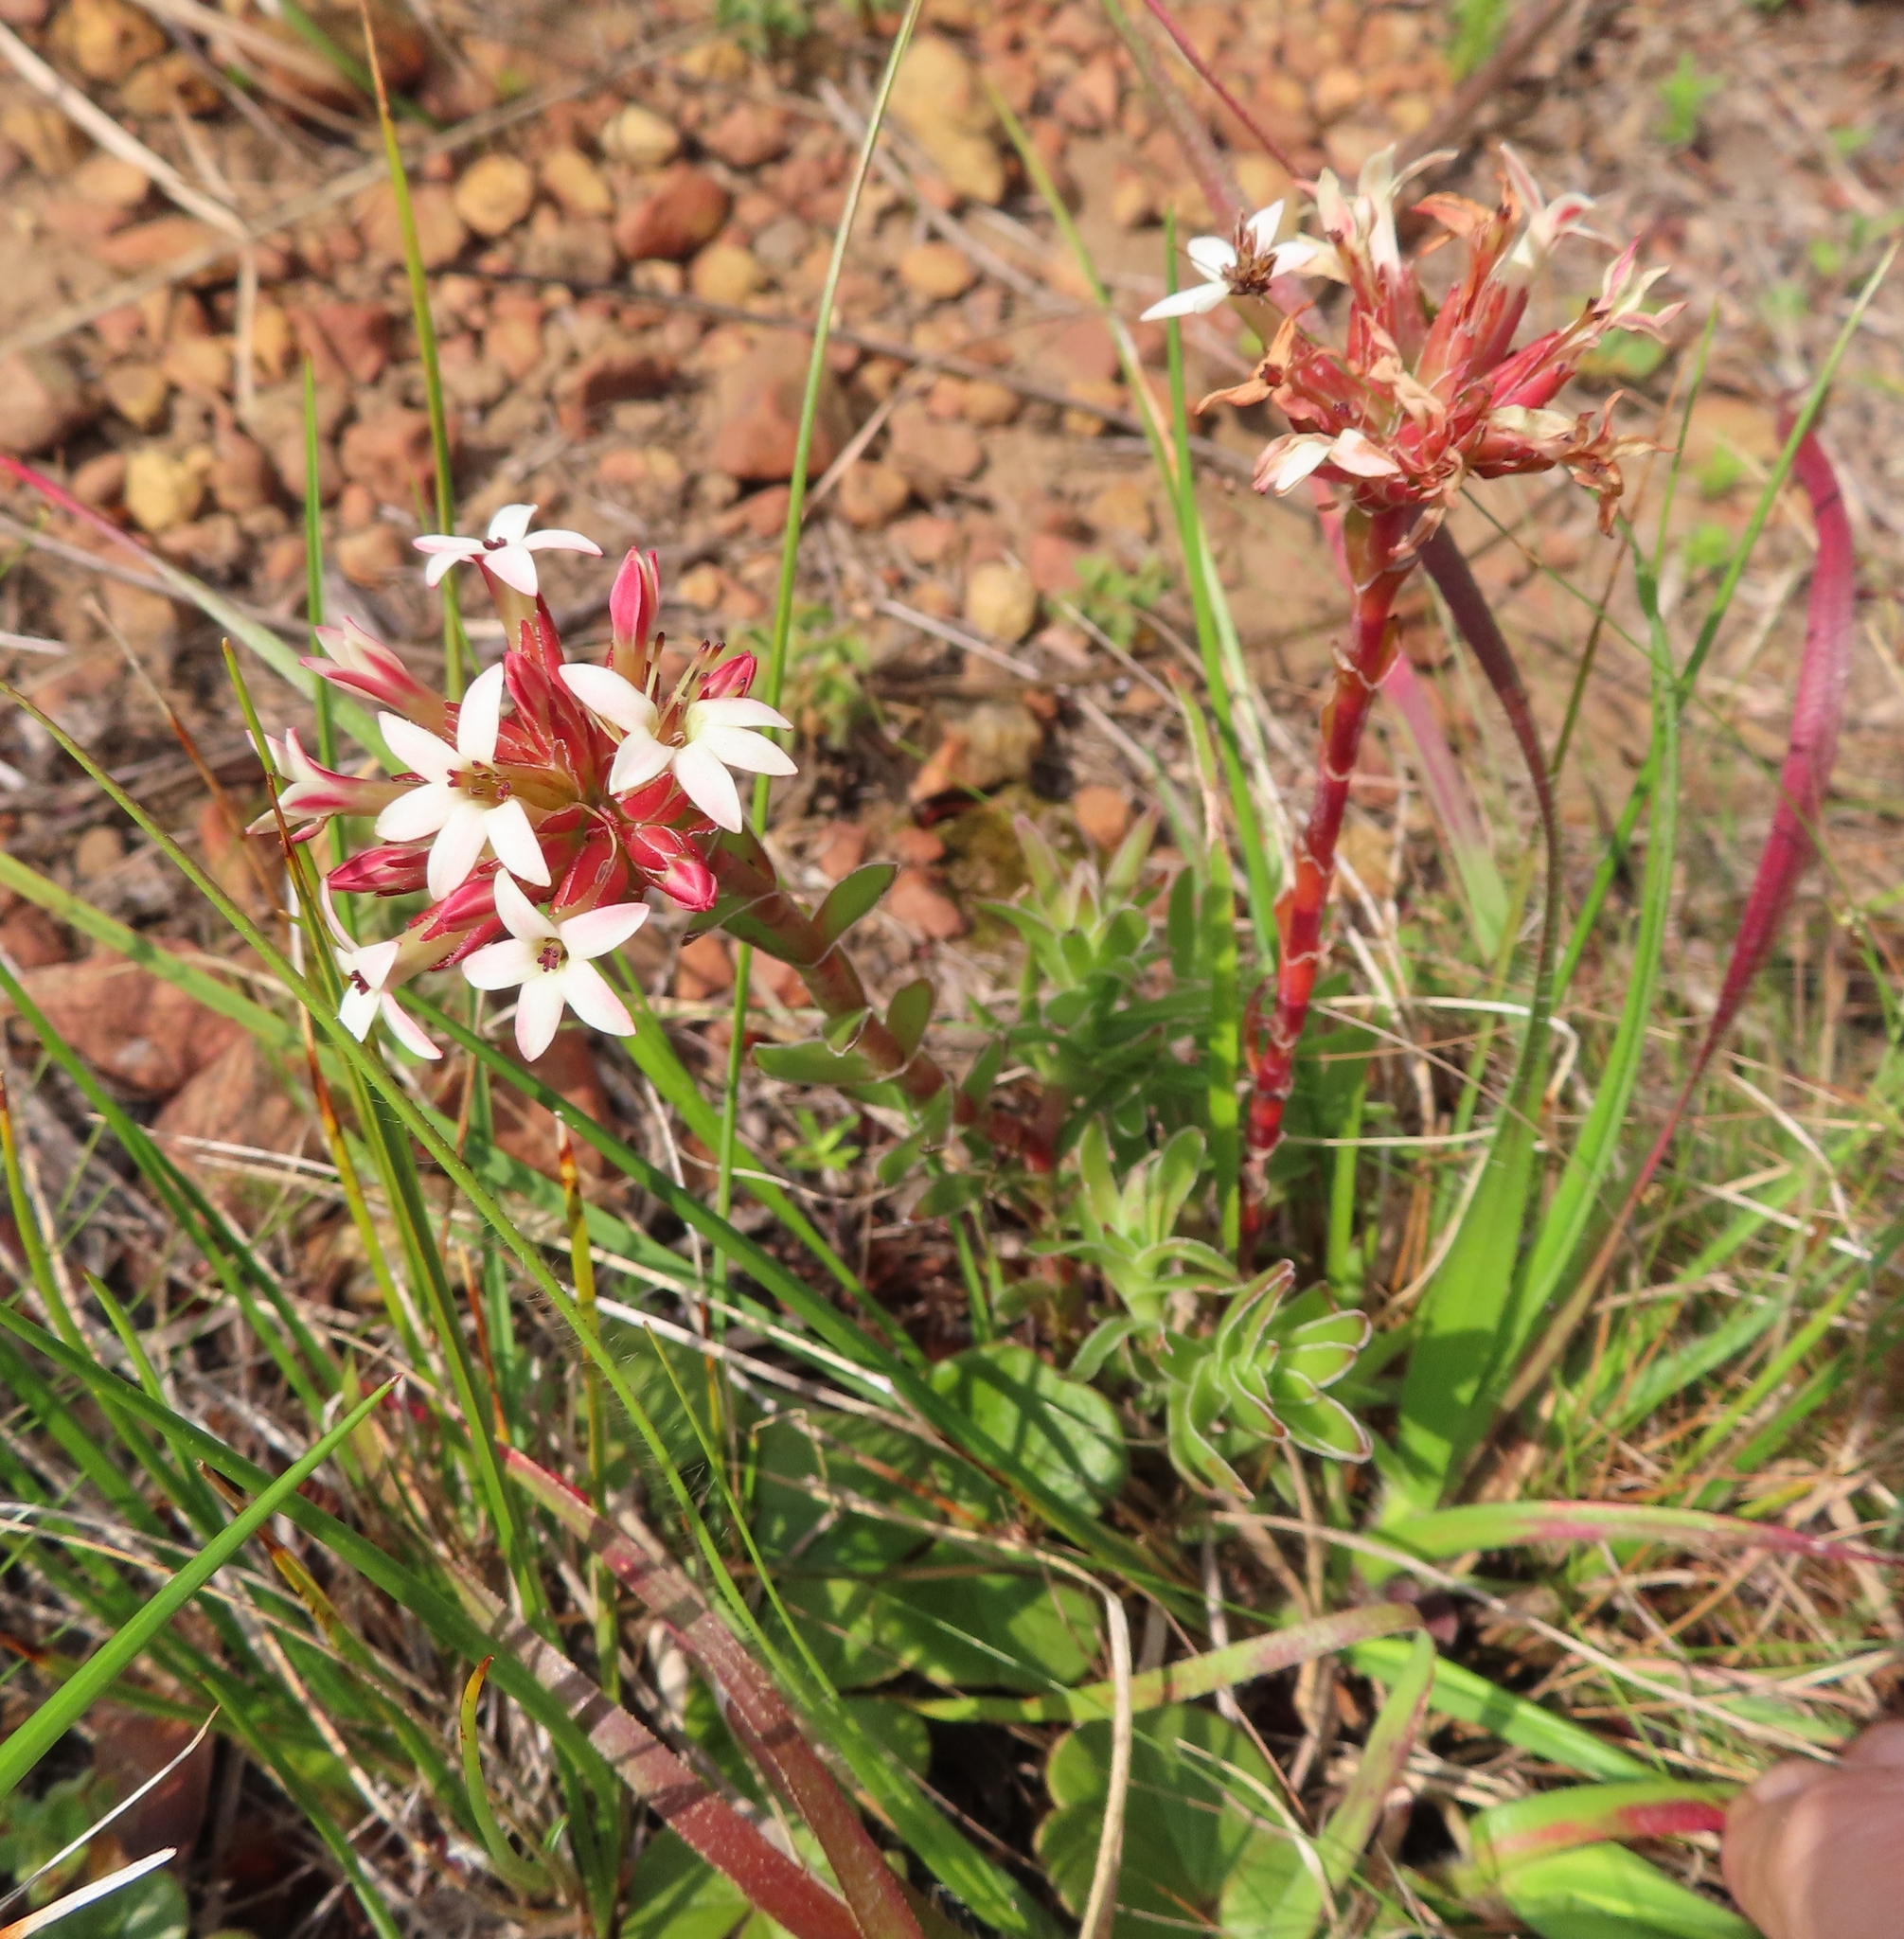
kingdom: Plantae
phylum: Tracheophyta
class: Magnoliopsida
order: Saxifragales
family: Crassulaceae
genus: Crassula
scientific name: Crassula fascicularis
